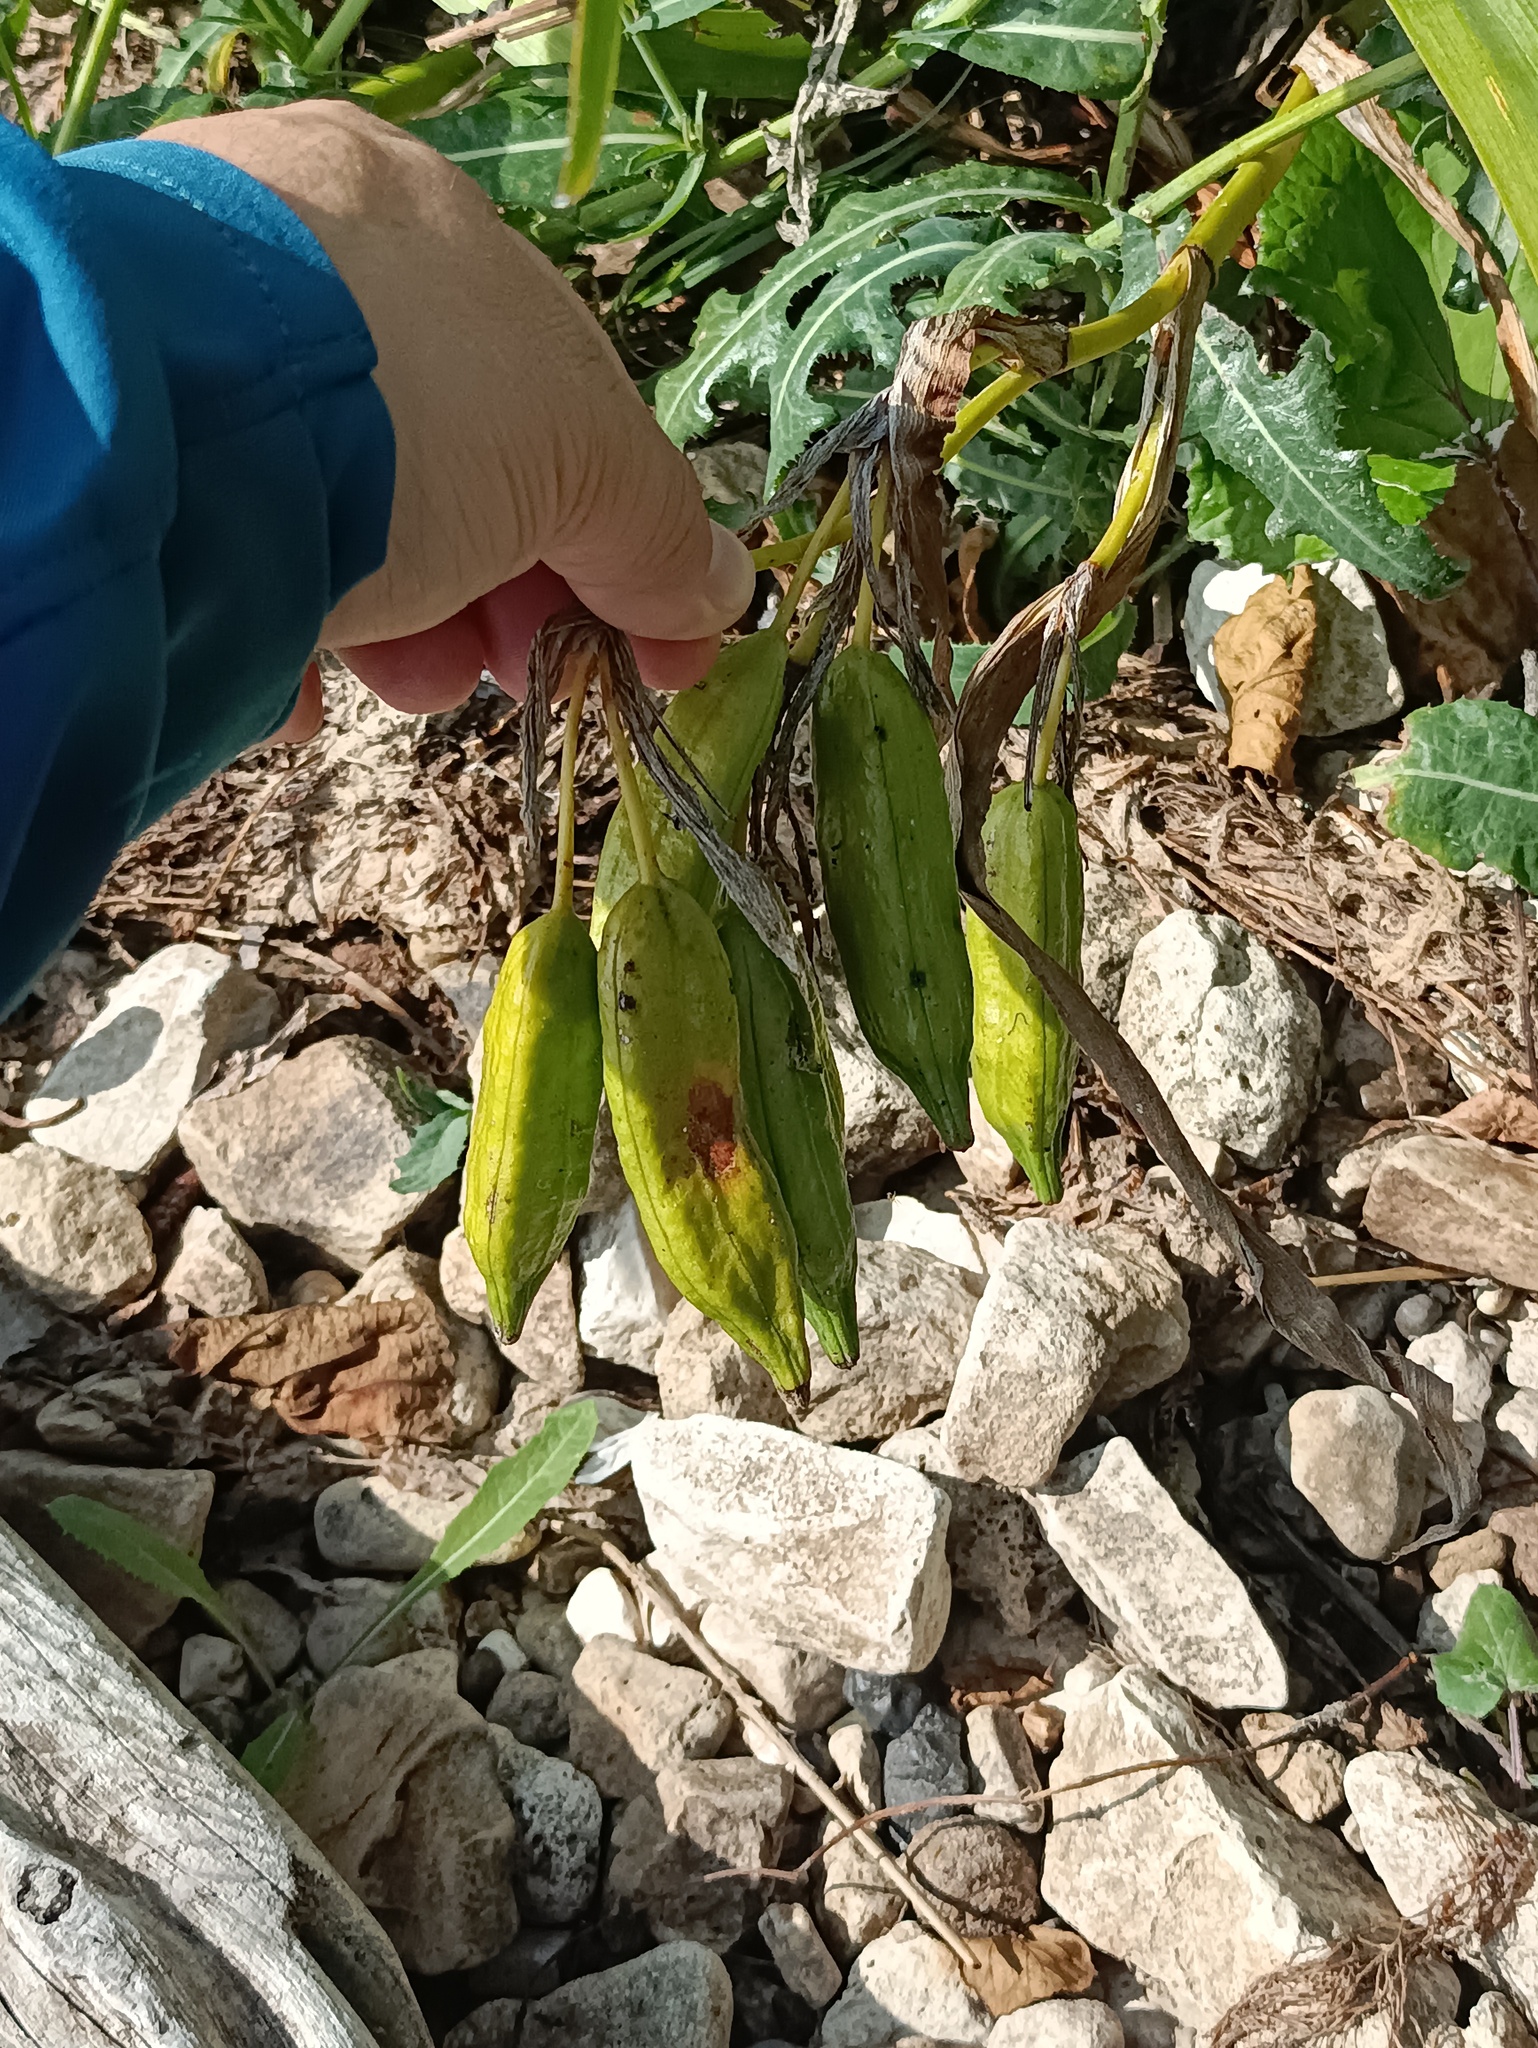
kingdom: Plantae
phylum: Tracheophyta
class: Liliopsida
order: Asparagales
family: Iridaceae
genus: Iris
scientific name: Iris pseudacorus
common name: Yellow flag
